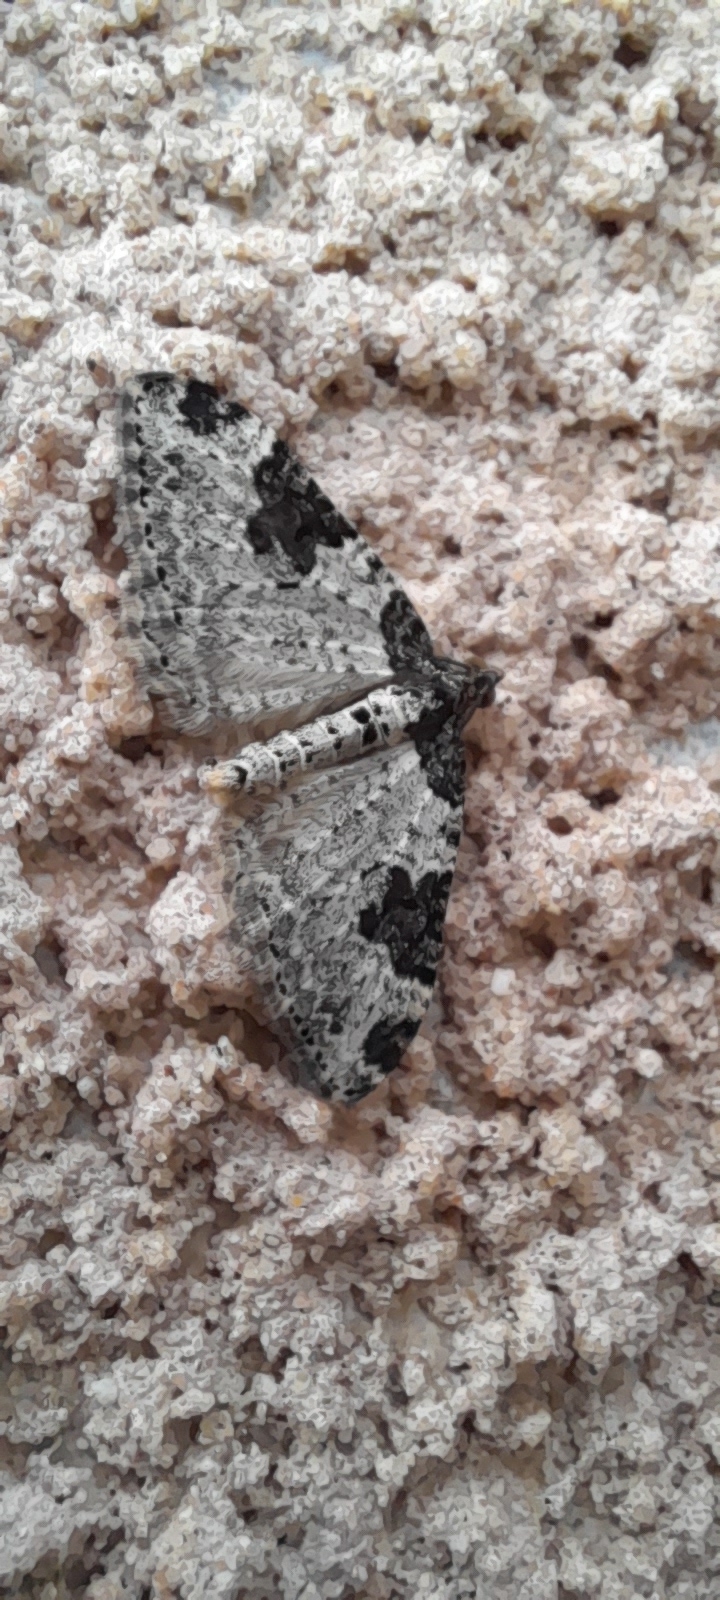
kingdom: Animalia
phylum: Arthropoda
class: Insecta
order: Lepidoptera
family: Geometridae
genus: Xanthorhoe
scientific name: Xanthorhoe fluctuata
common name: Garden carpet
